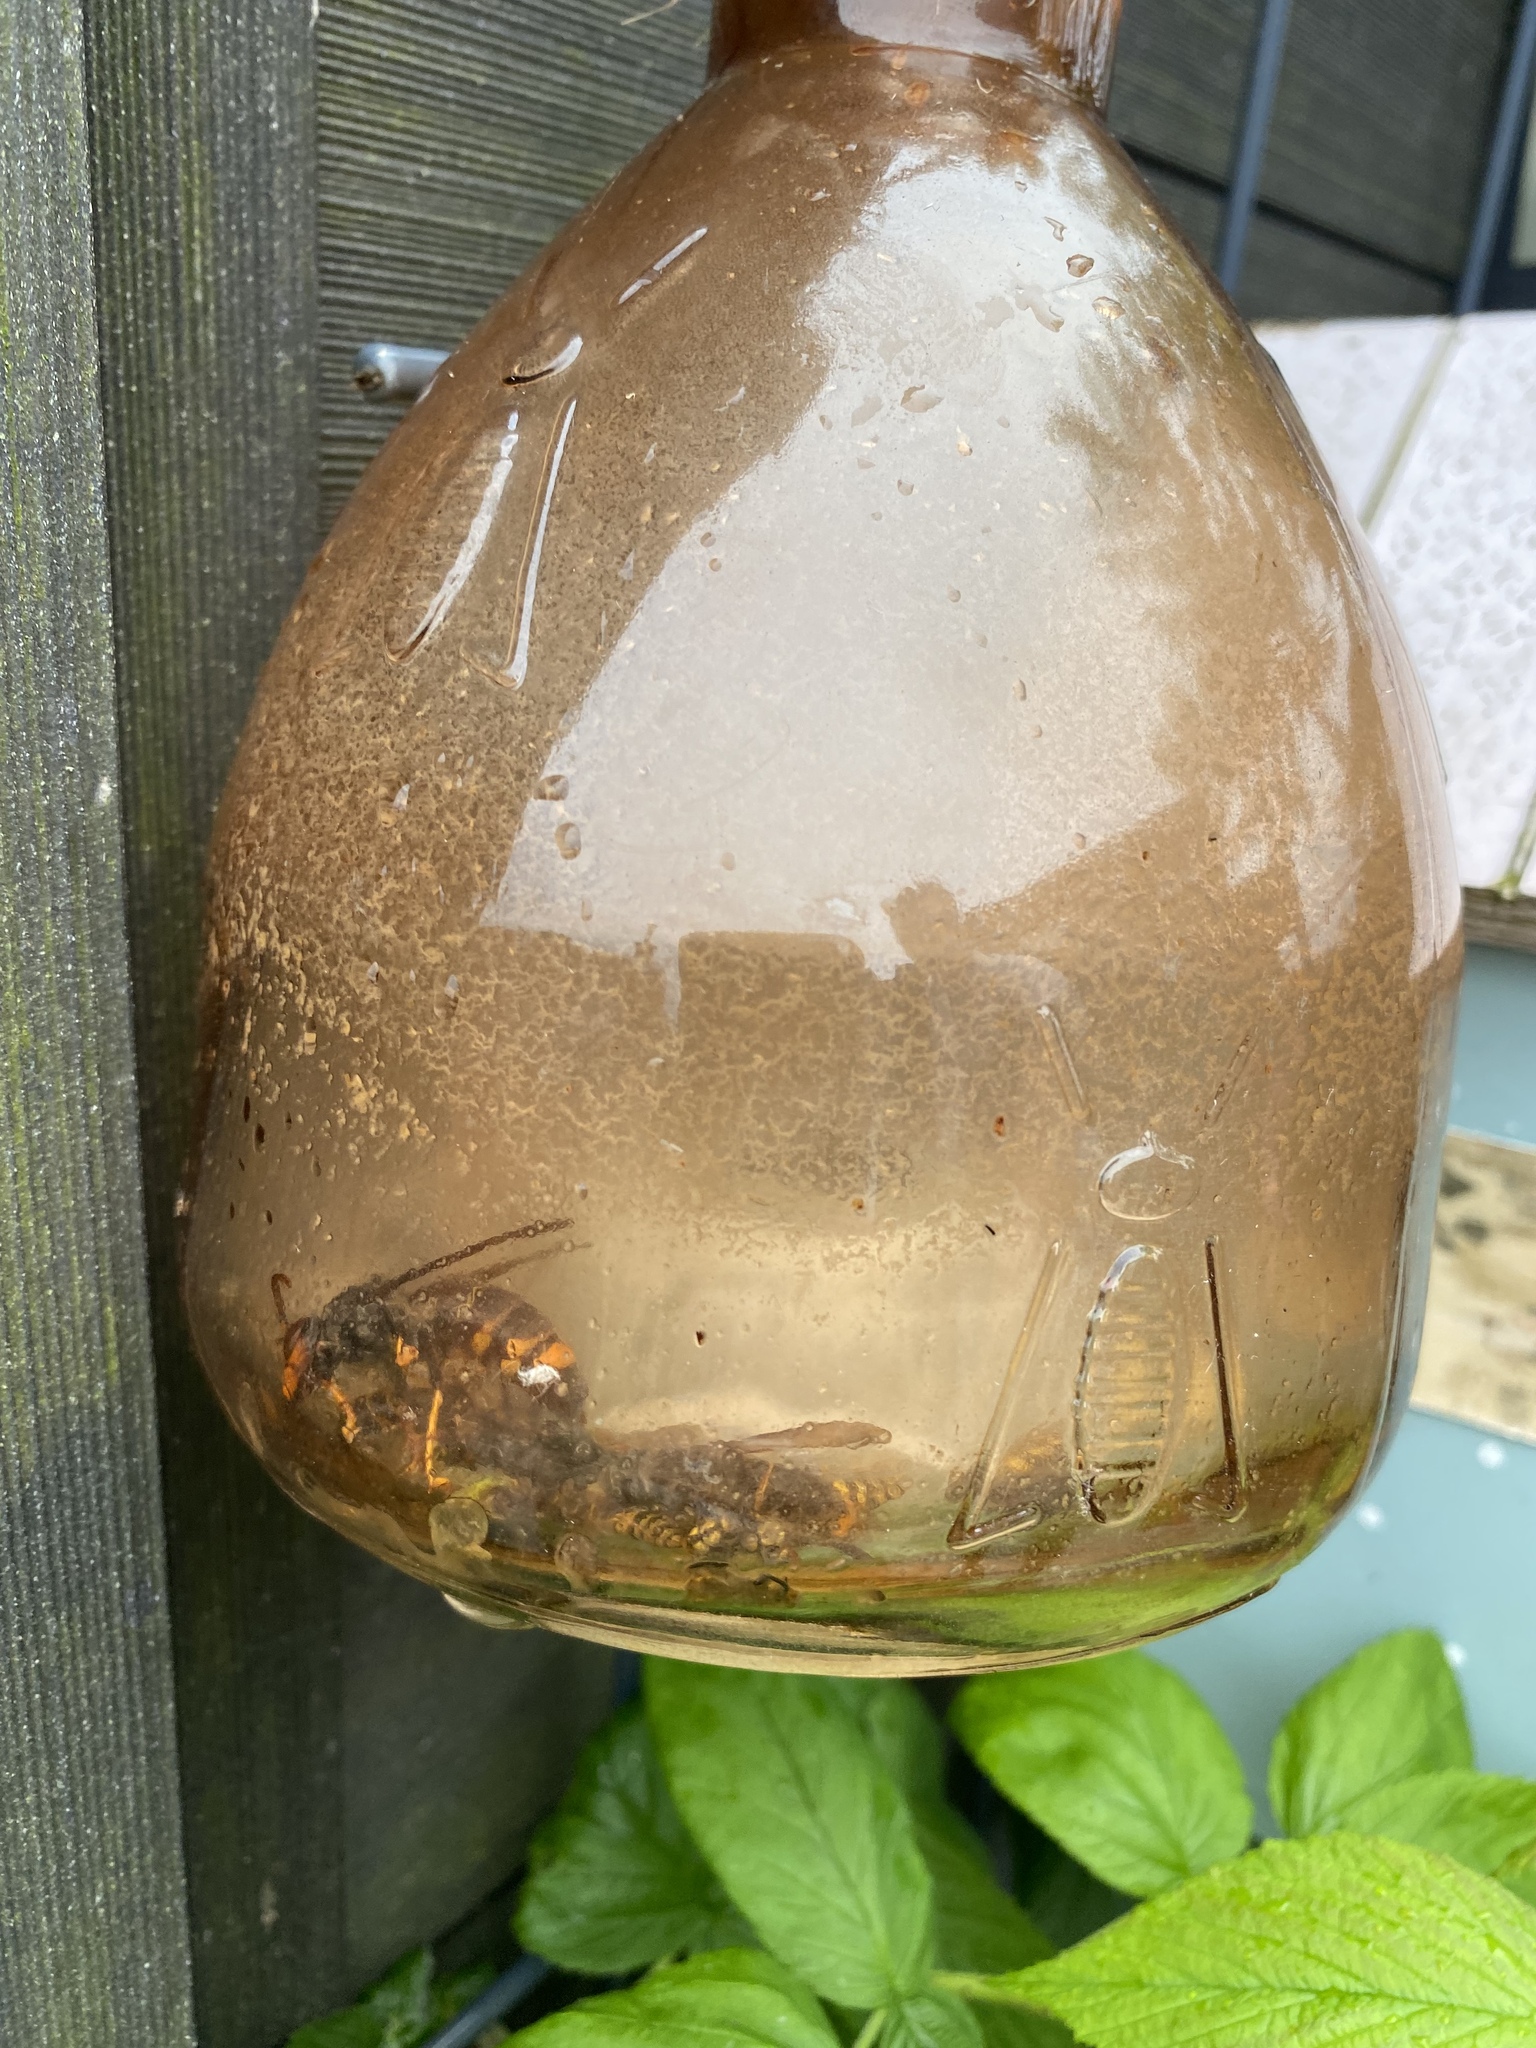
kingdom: Animalia
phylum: Arthropoda
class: Insecta
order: Hymenoptera
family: Vespidae
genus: Vespa
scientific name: Vespa velutina
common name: Asian hornet
